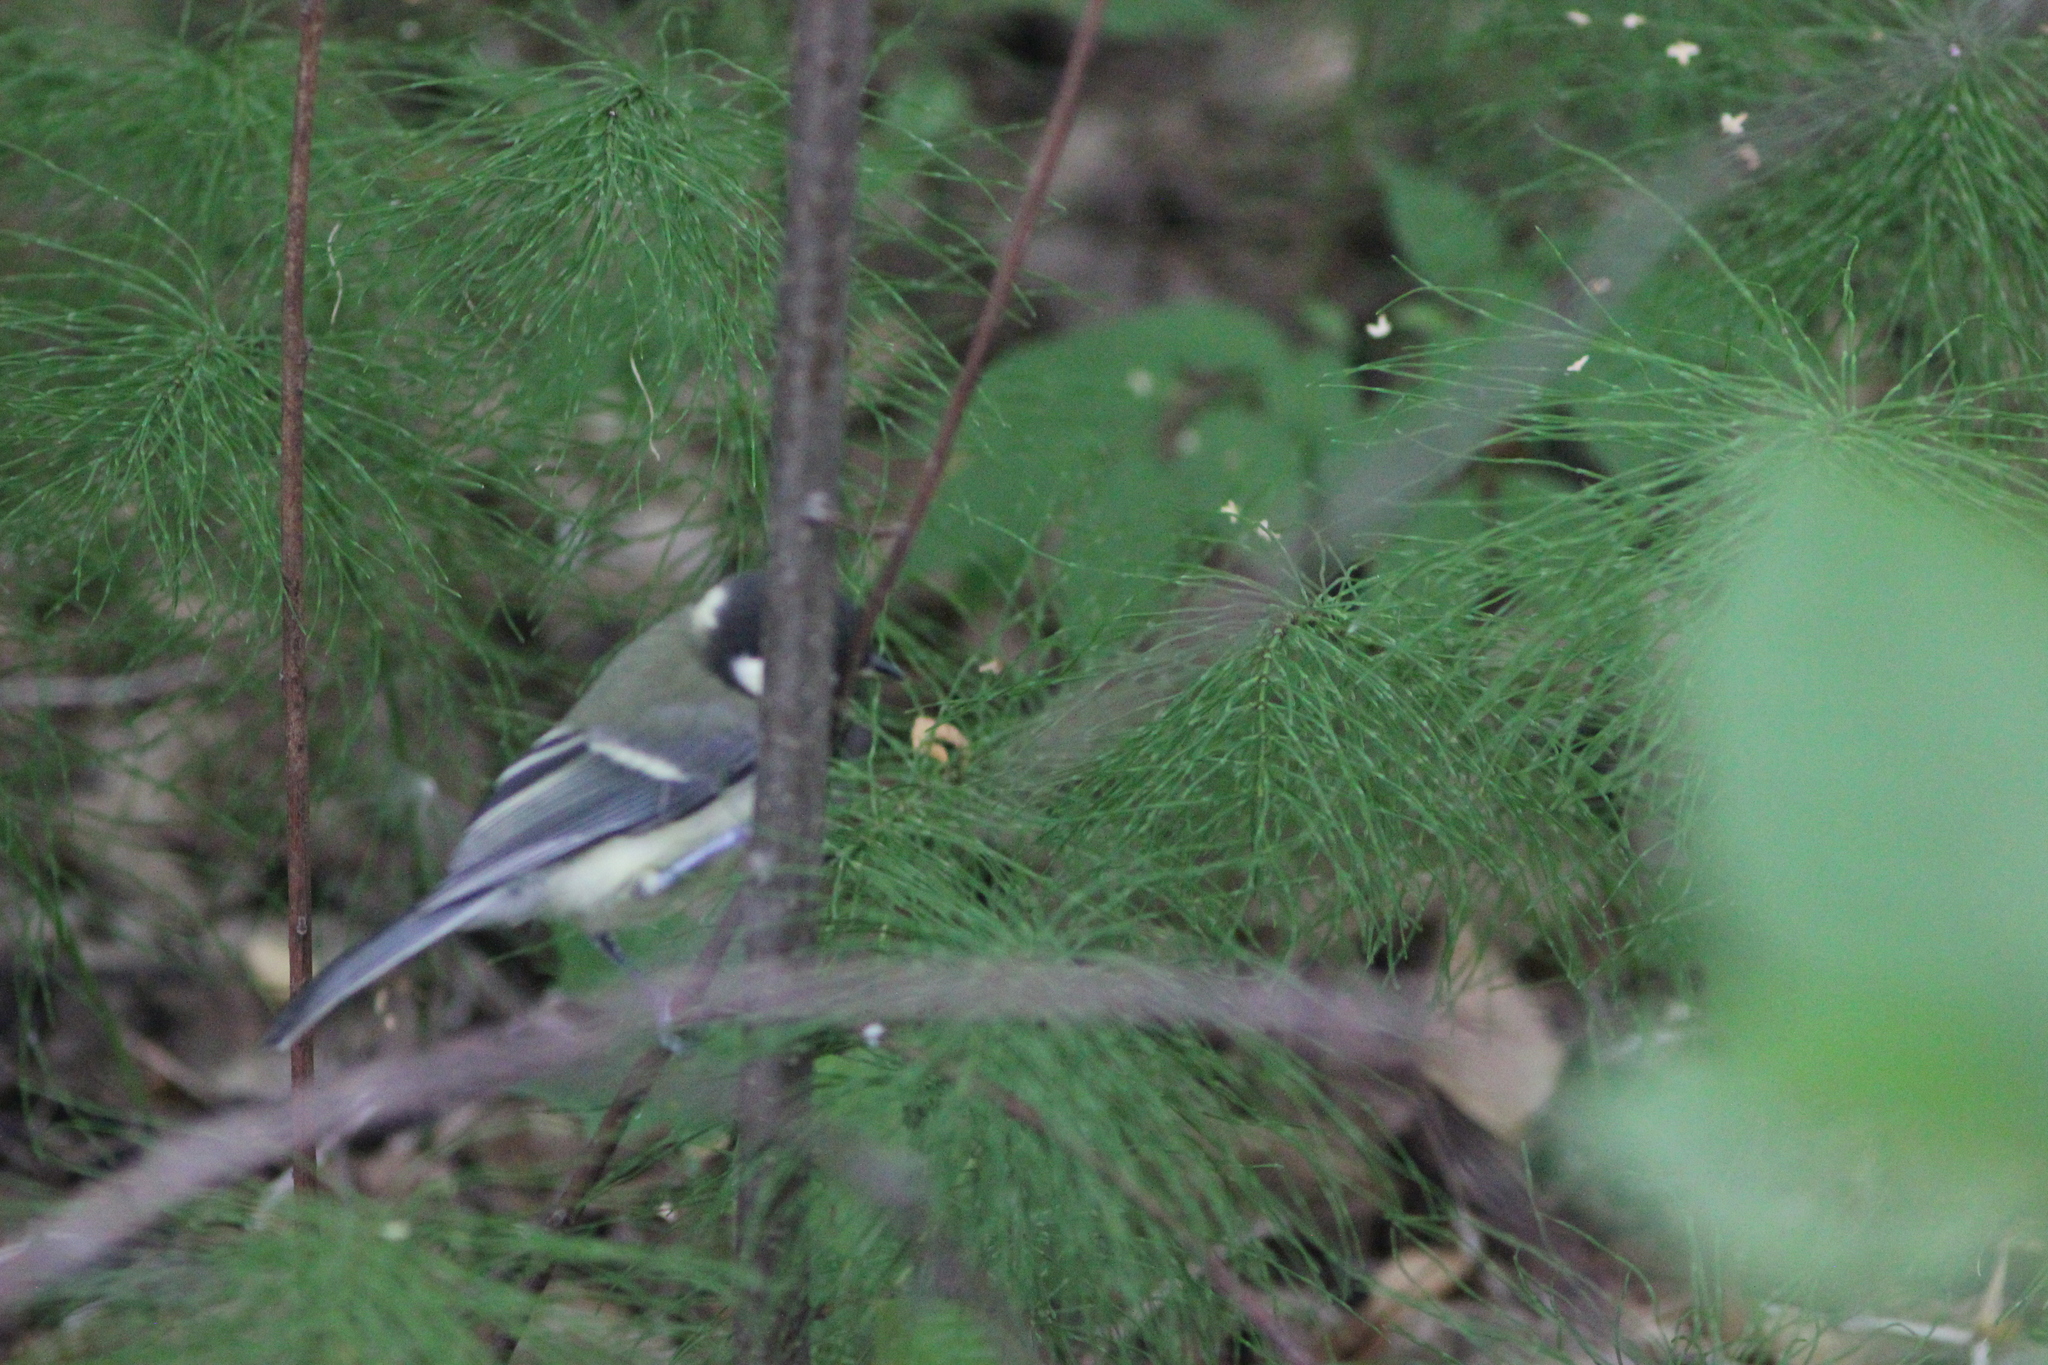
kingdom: Animalia
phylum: Chordata
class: Aves
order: Passeriformes
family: Paridae
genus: Parus
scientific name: Parus major
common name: Great tit
